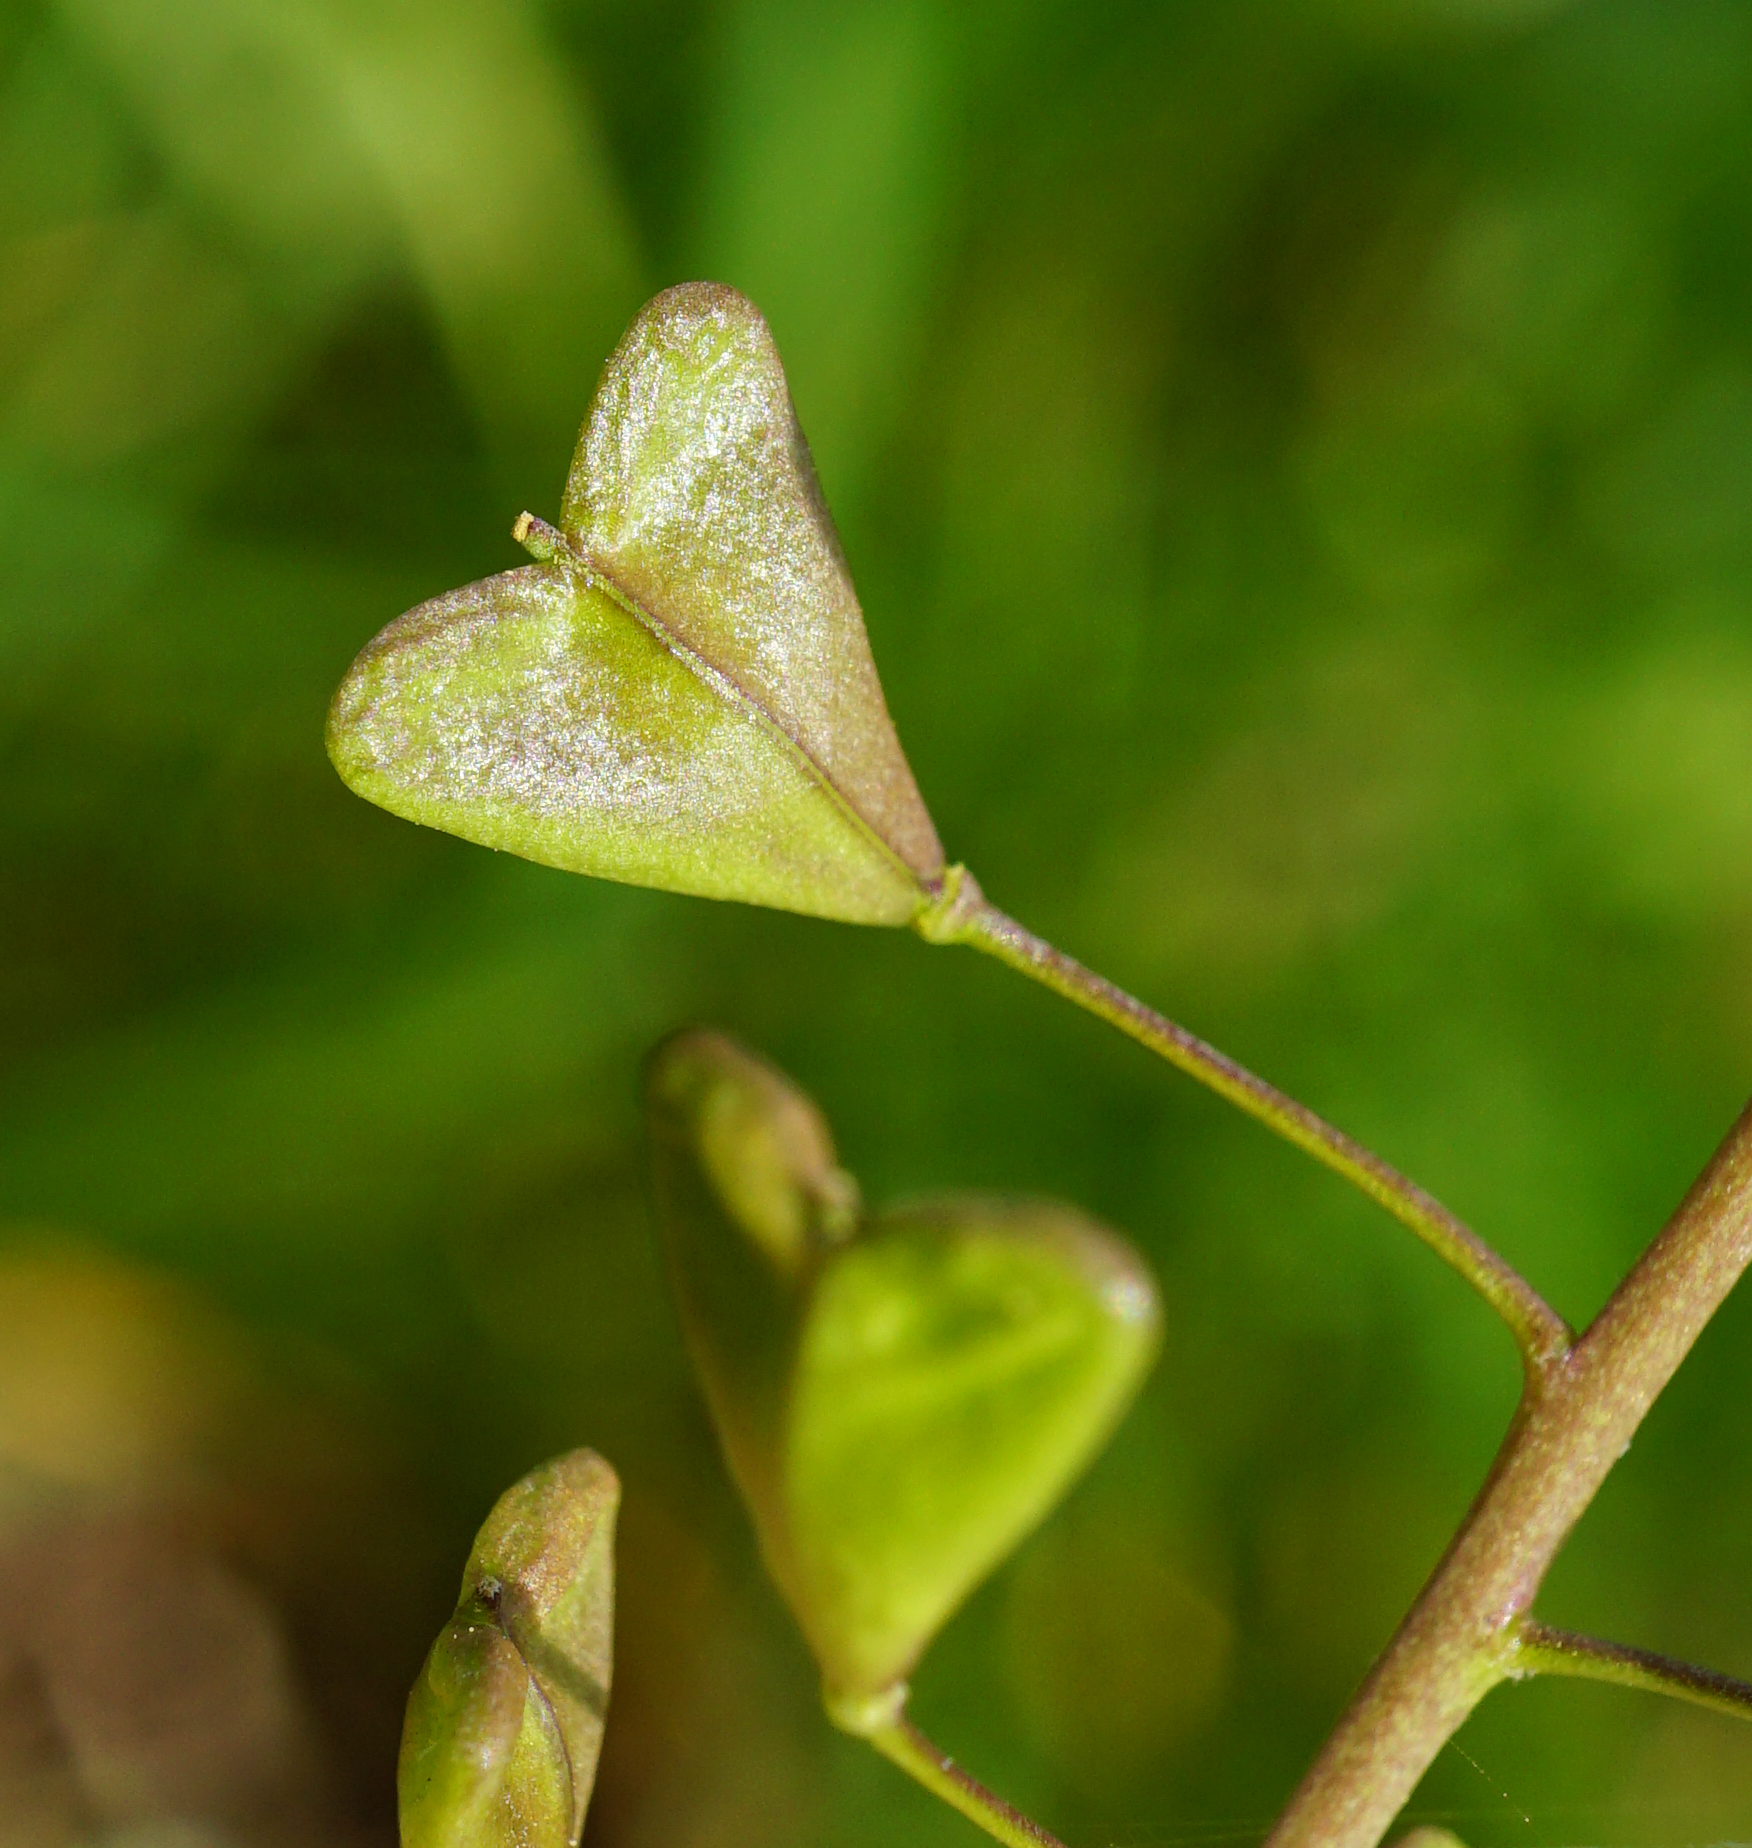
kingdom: Plantae
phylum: Tracheophyta
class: Magnoliopsida
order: Brassicales
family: Brassicaceae
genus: Capsella
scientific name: Capsella bursa-pastoris
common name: Shepherd's purse
